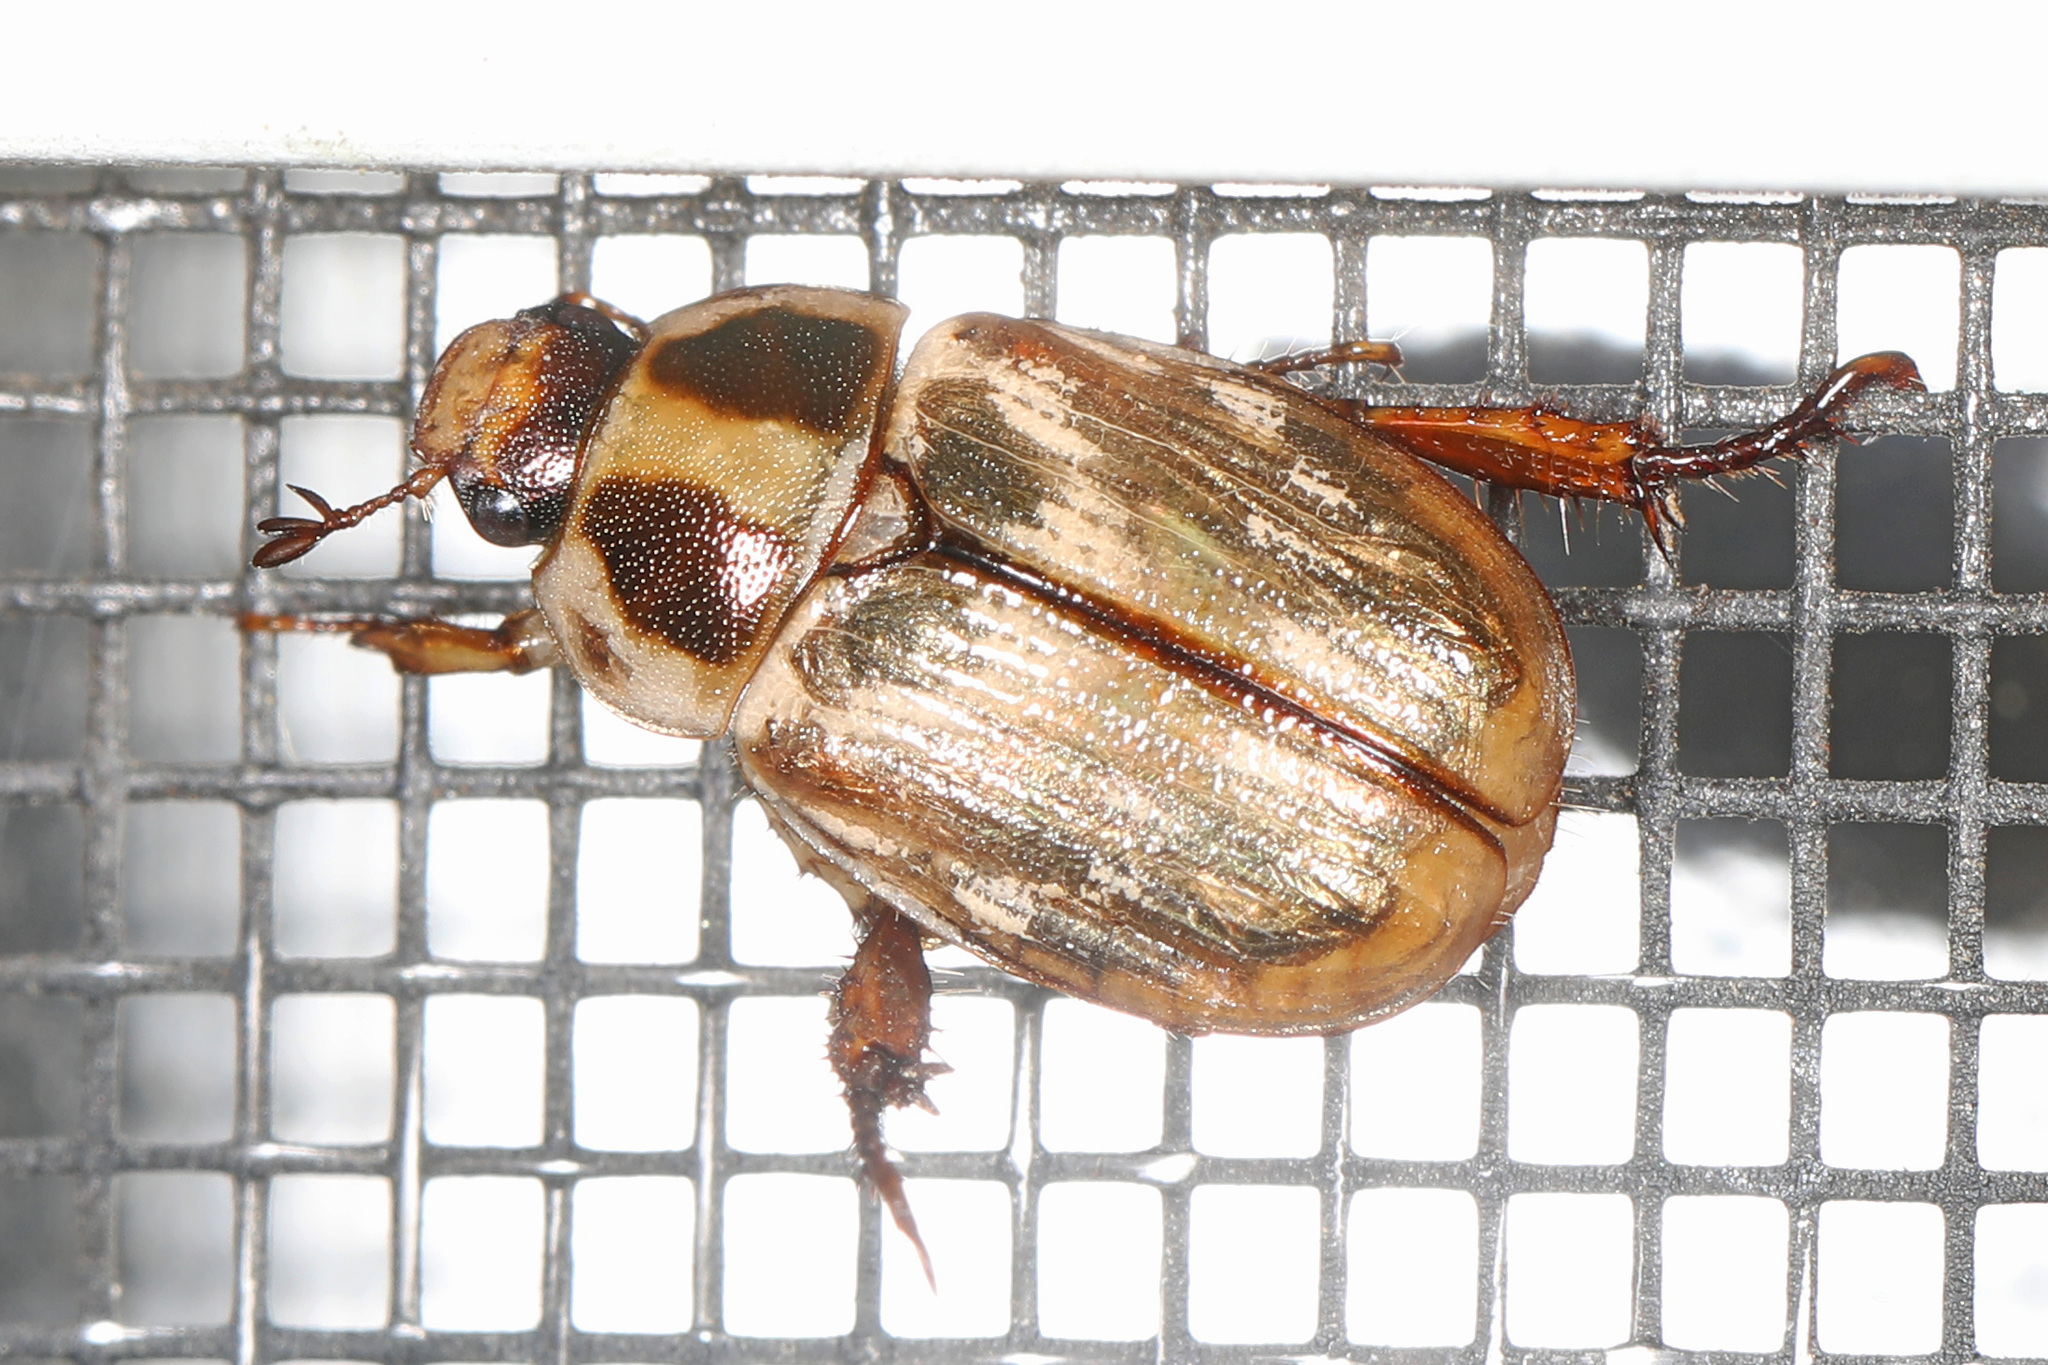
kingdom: Animalia
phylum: Arthropoda
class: Insecta
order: Coleoptera
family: Scarabaeidae
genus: Exomala
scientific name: Exomala orientalis
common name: Oriental beetle
